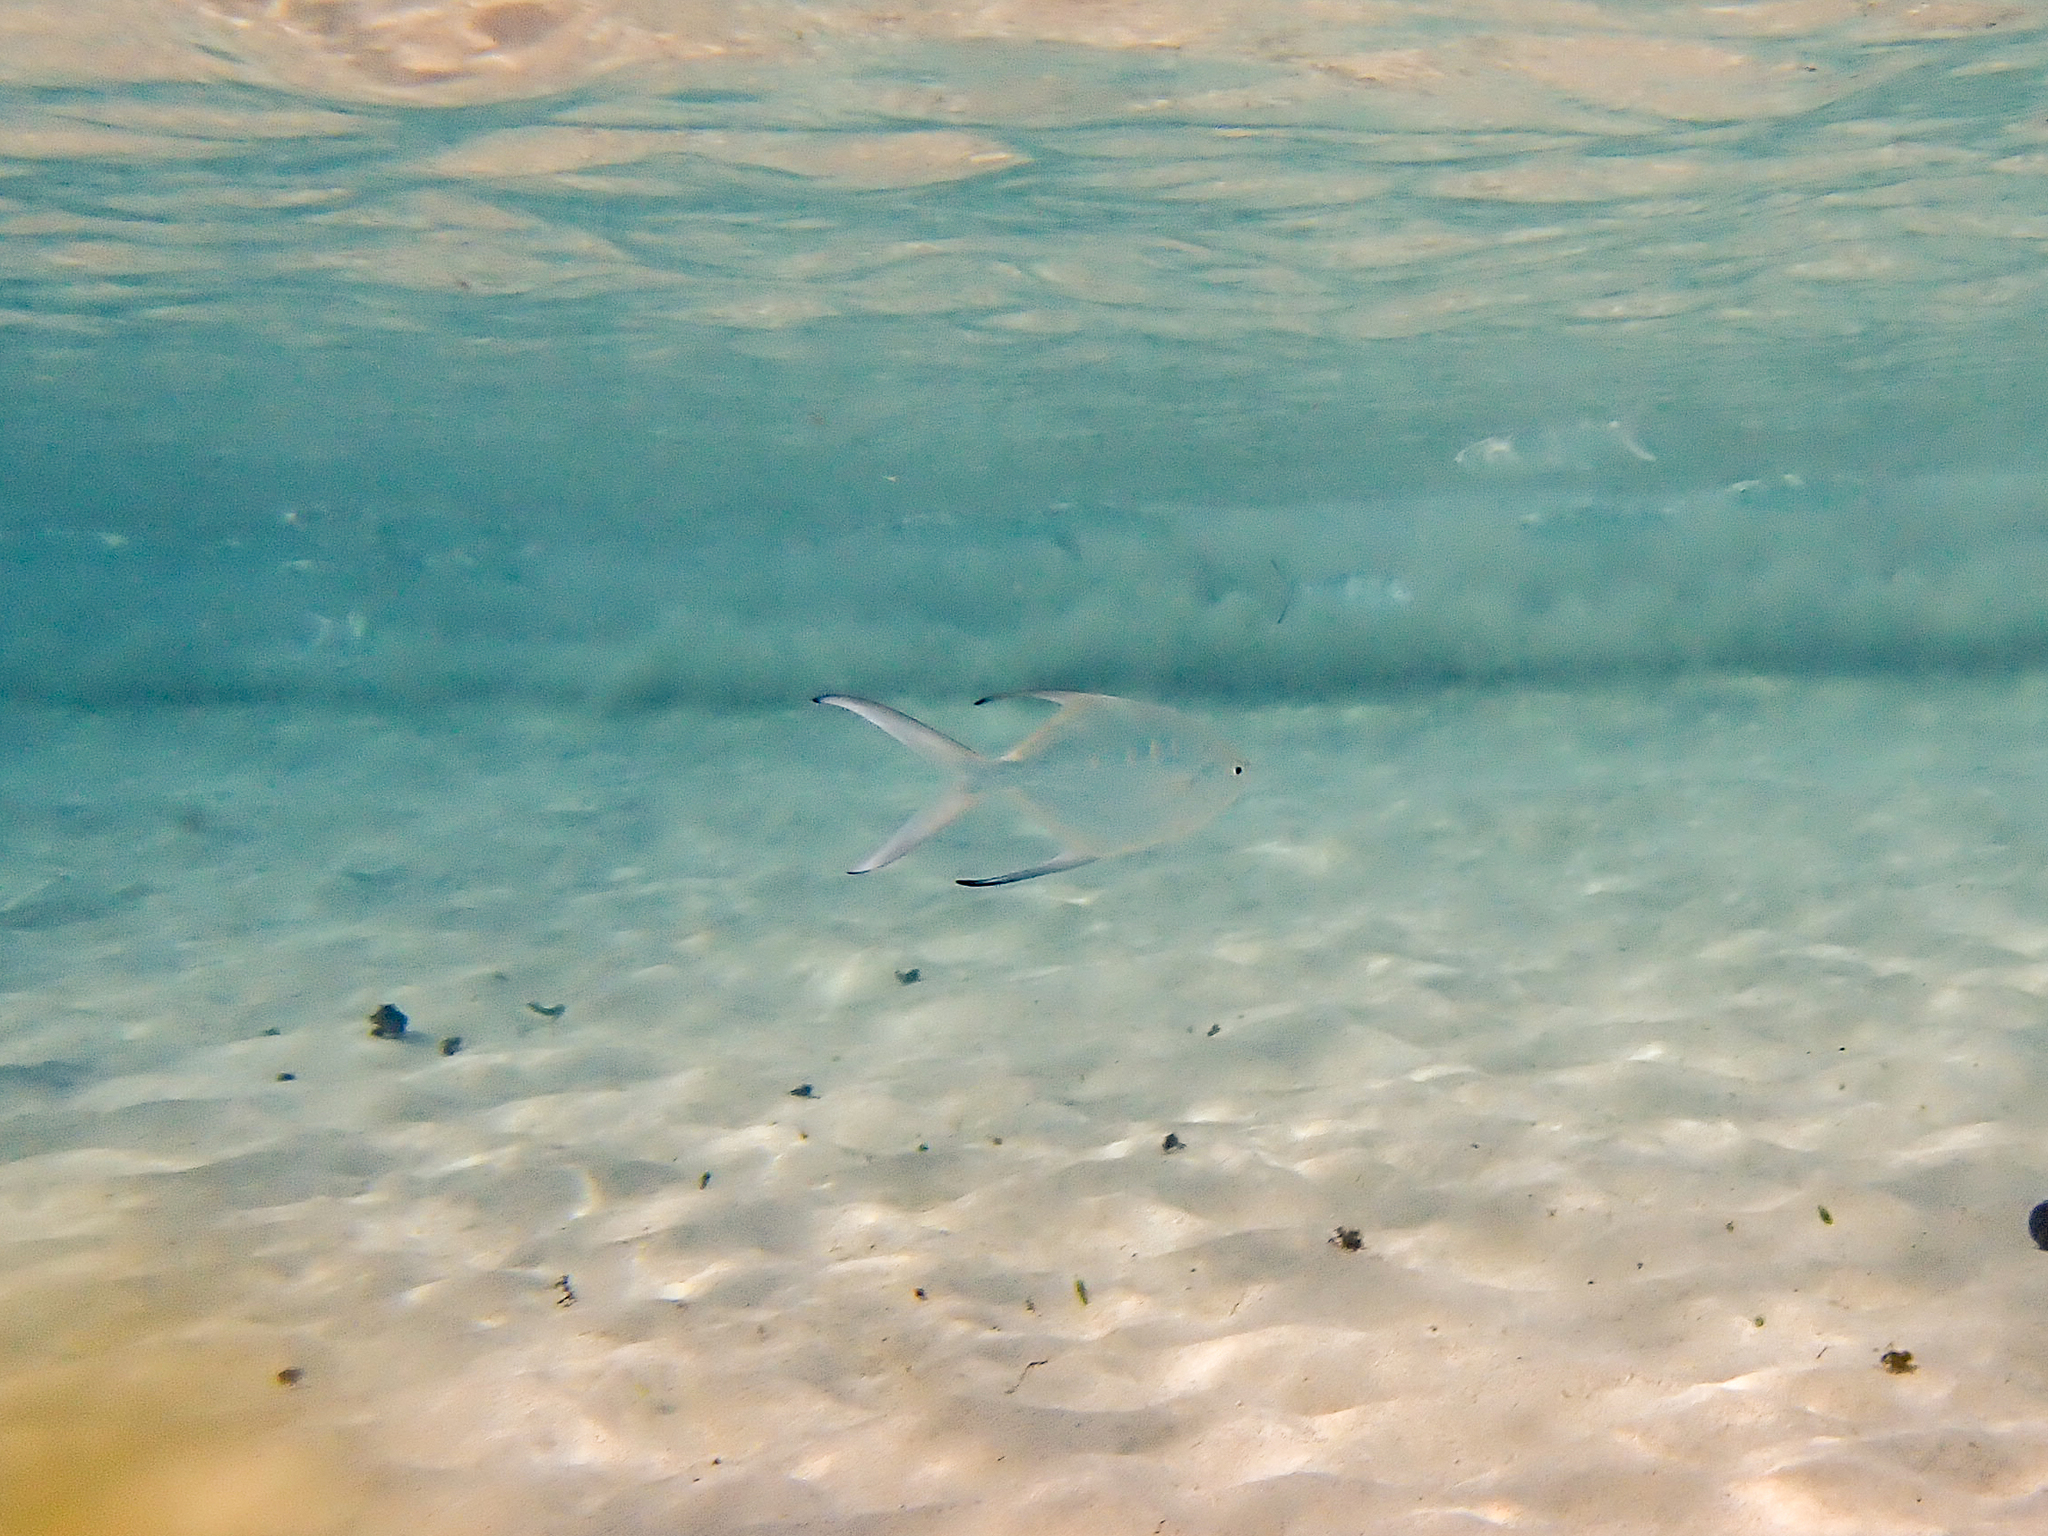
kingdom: Animalia
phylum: Chordata
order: Perciformes
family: Carangidae
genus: Trachinotus
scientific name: Trachinotus coppingeri
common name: Swallowtail dart
